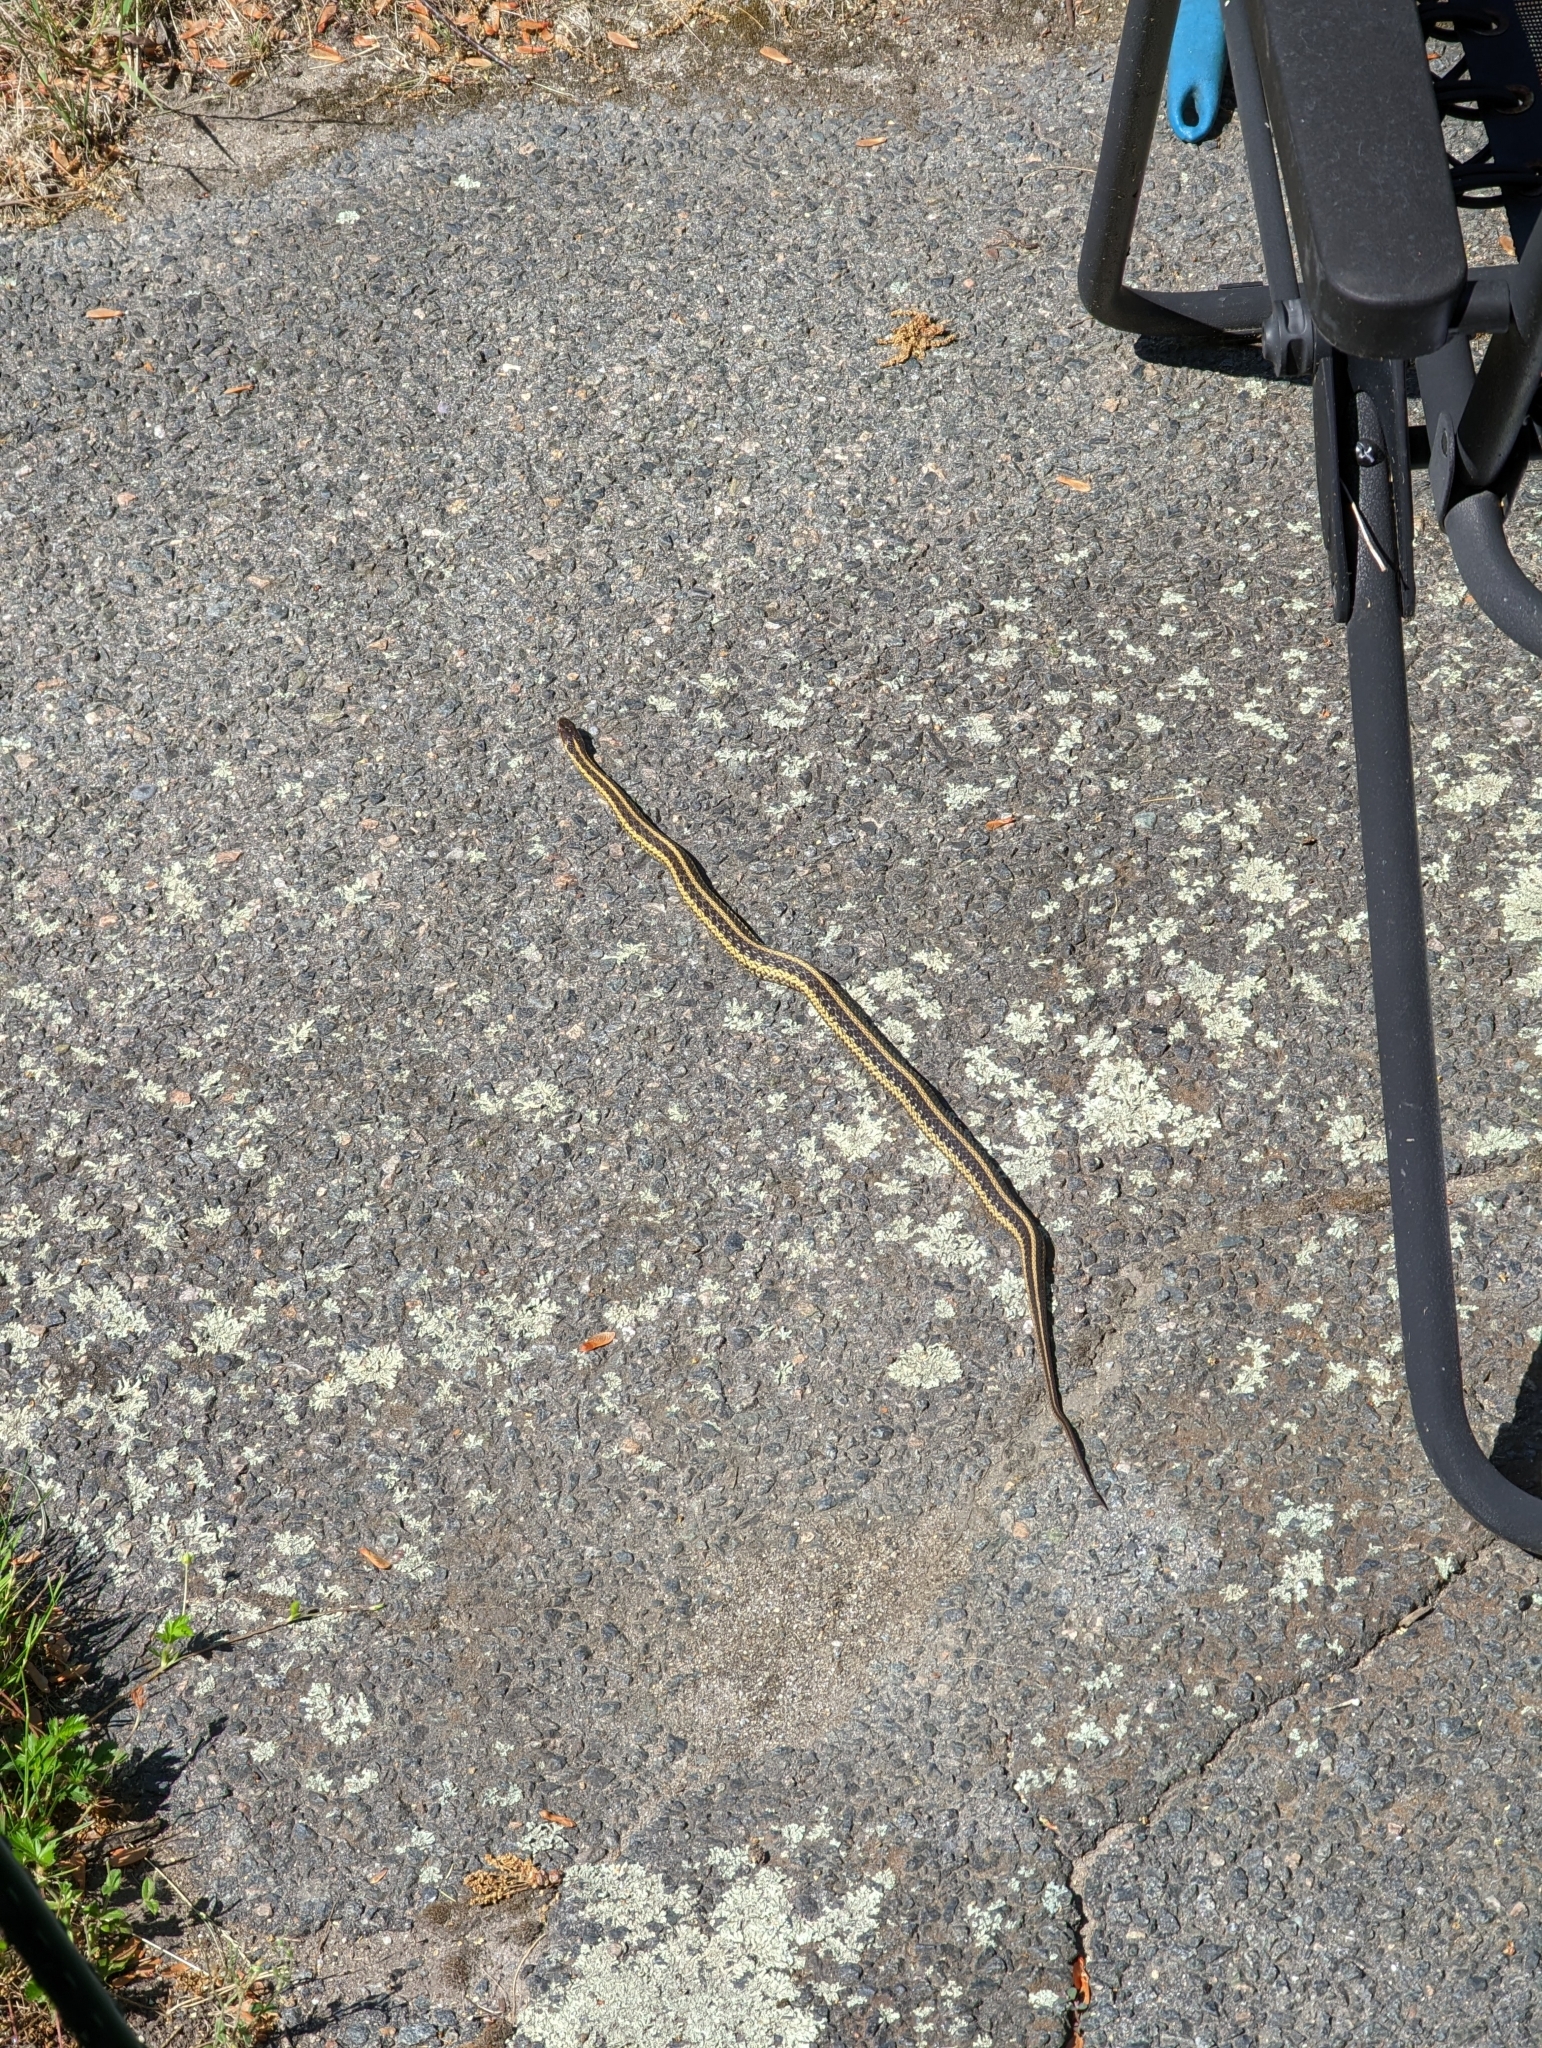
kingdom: Animalia
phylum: Chordata
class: Squamata
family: Colubridae
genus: Thamnophis
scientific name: Thamnophis sirtalis
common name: Common garter snake
